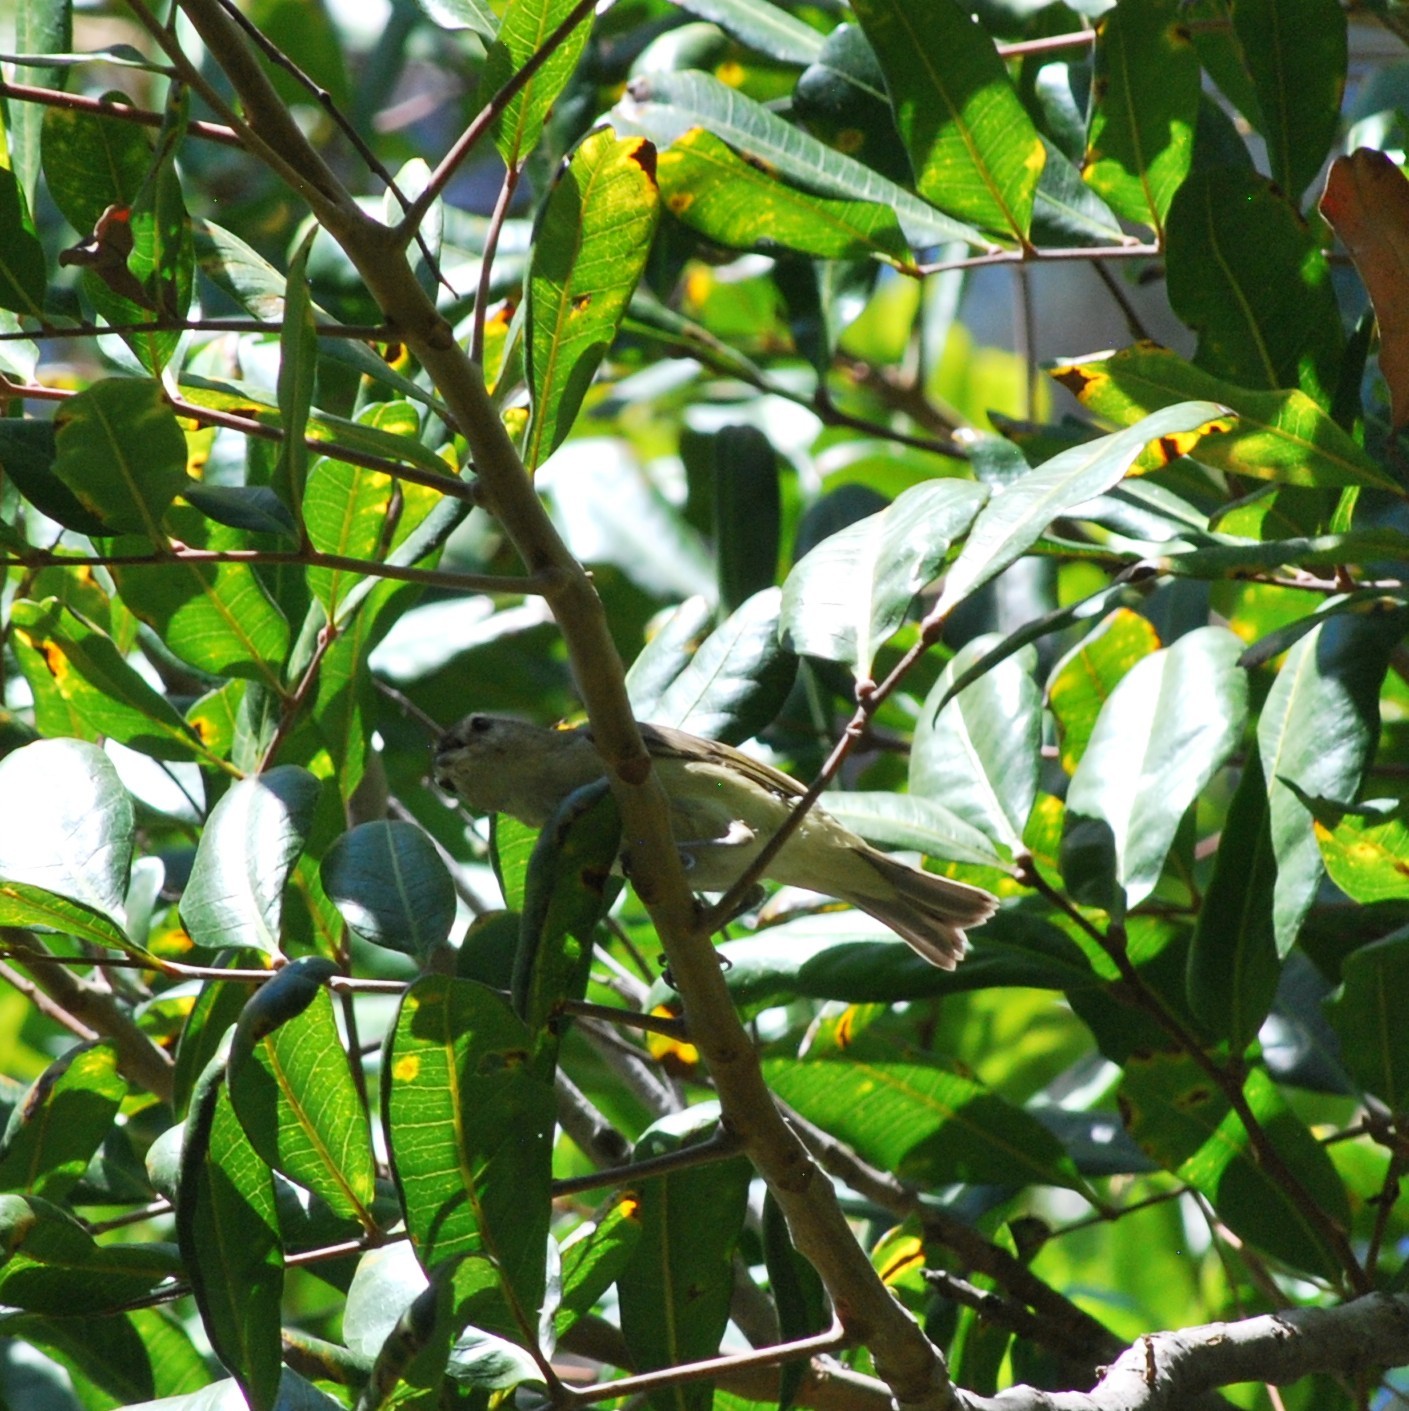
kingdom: Animalia
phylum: Chordata
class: Aves
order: Passeriformes
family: Vireonidae
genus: Vireo
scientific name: Vireo gilvus
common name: Warbling vireo
